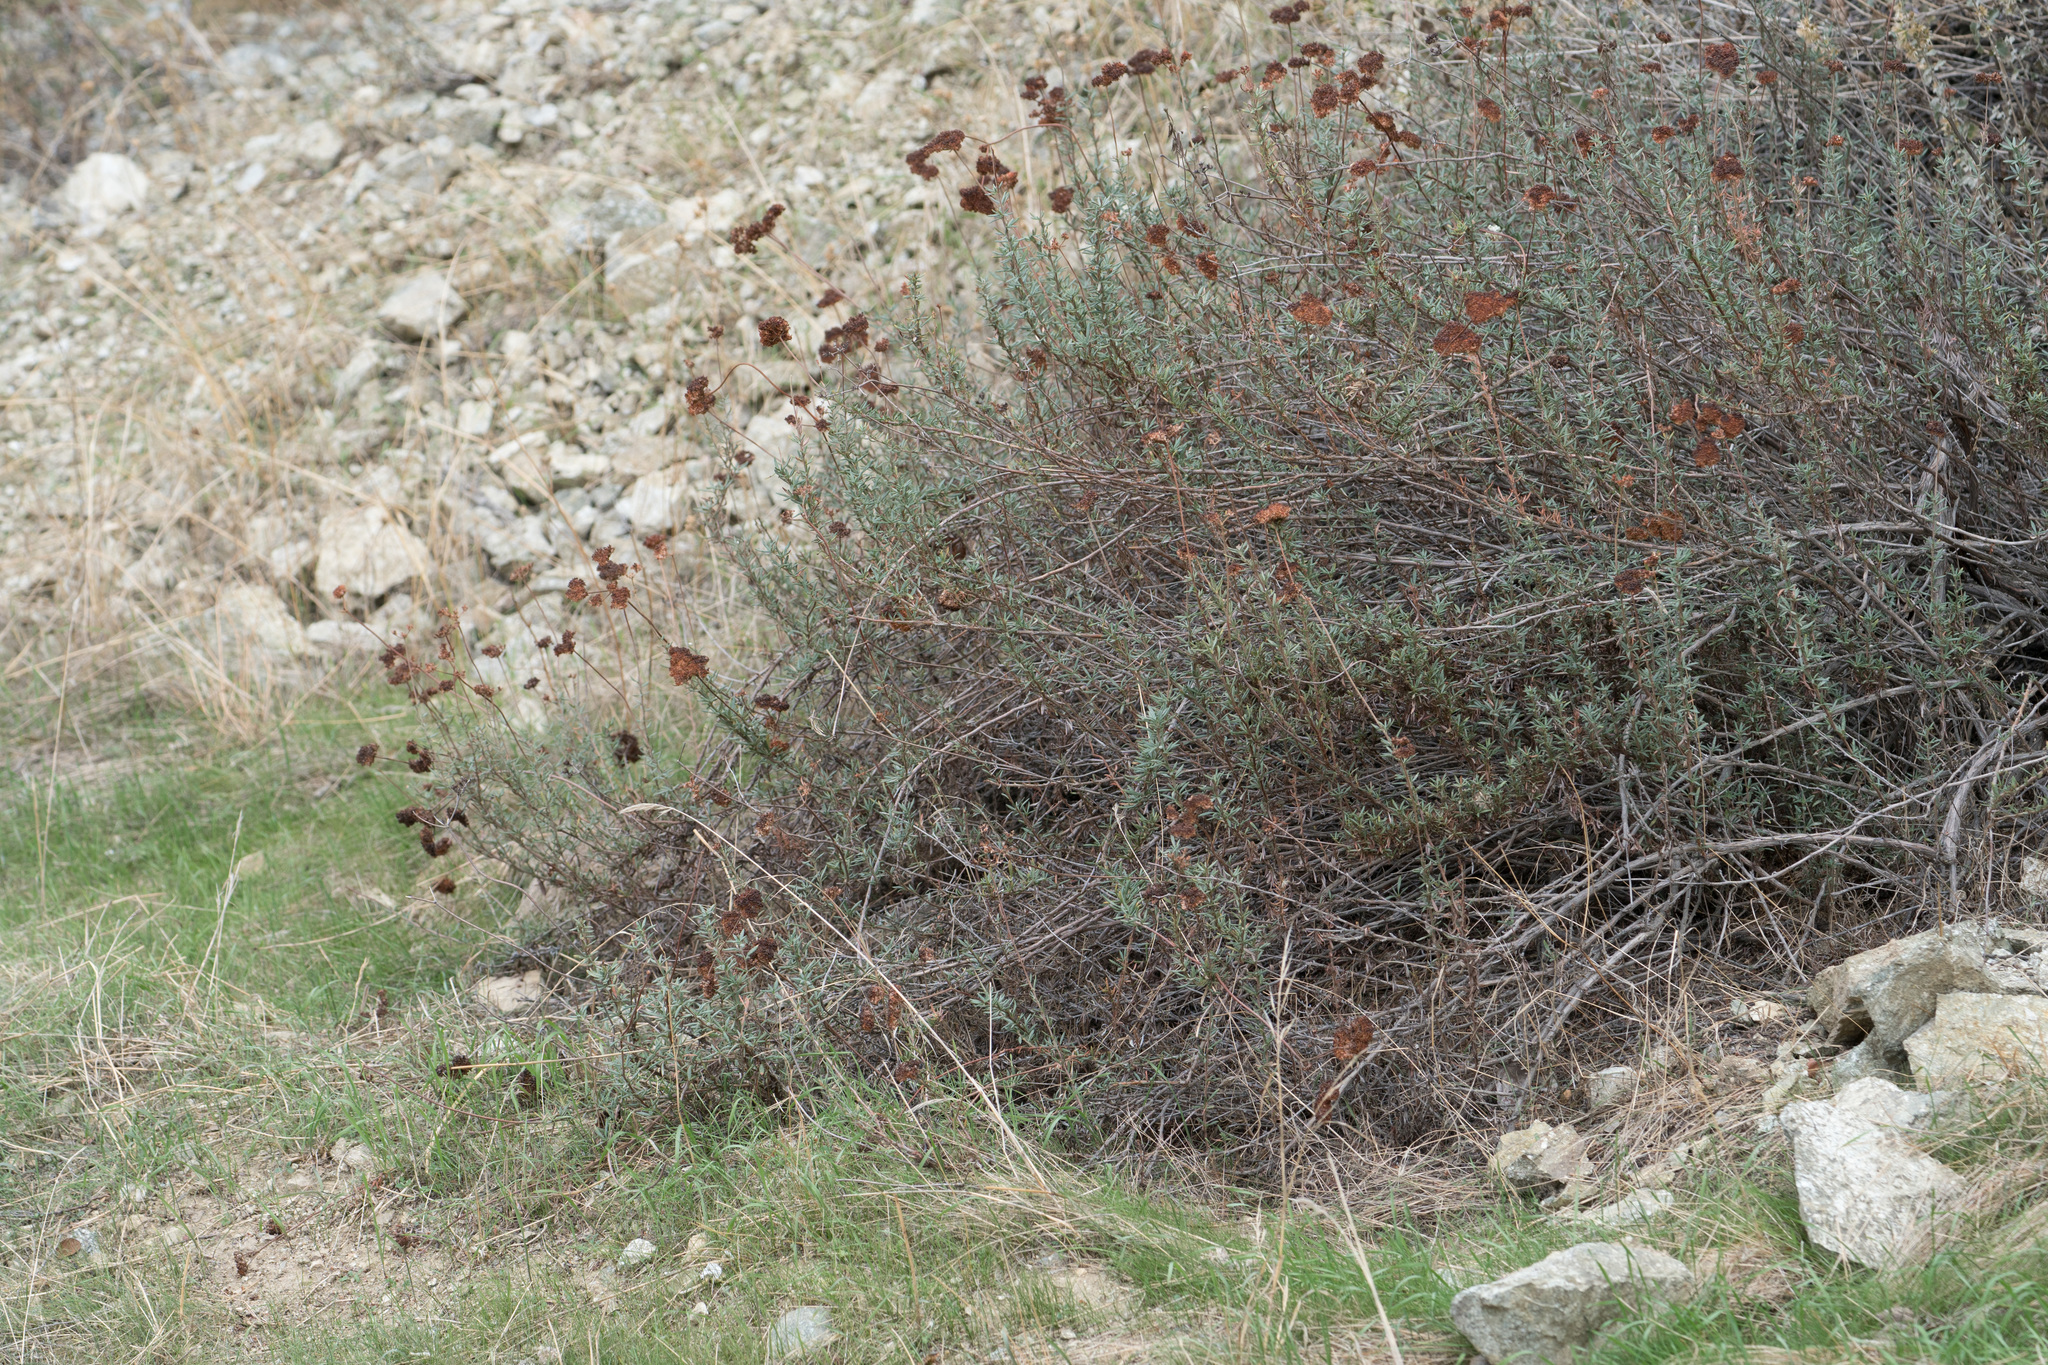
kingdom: Plantae
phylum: Tracheophyta
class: Magnoliopsida
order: Caryophyllales
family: Polygonaceae
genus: Eriogonum
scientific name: Eriogonum fasciculatum
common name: California wild buckwheat
